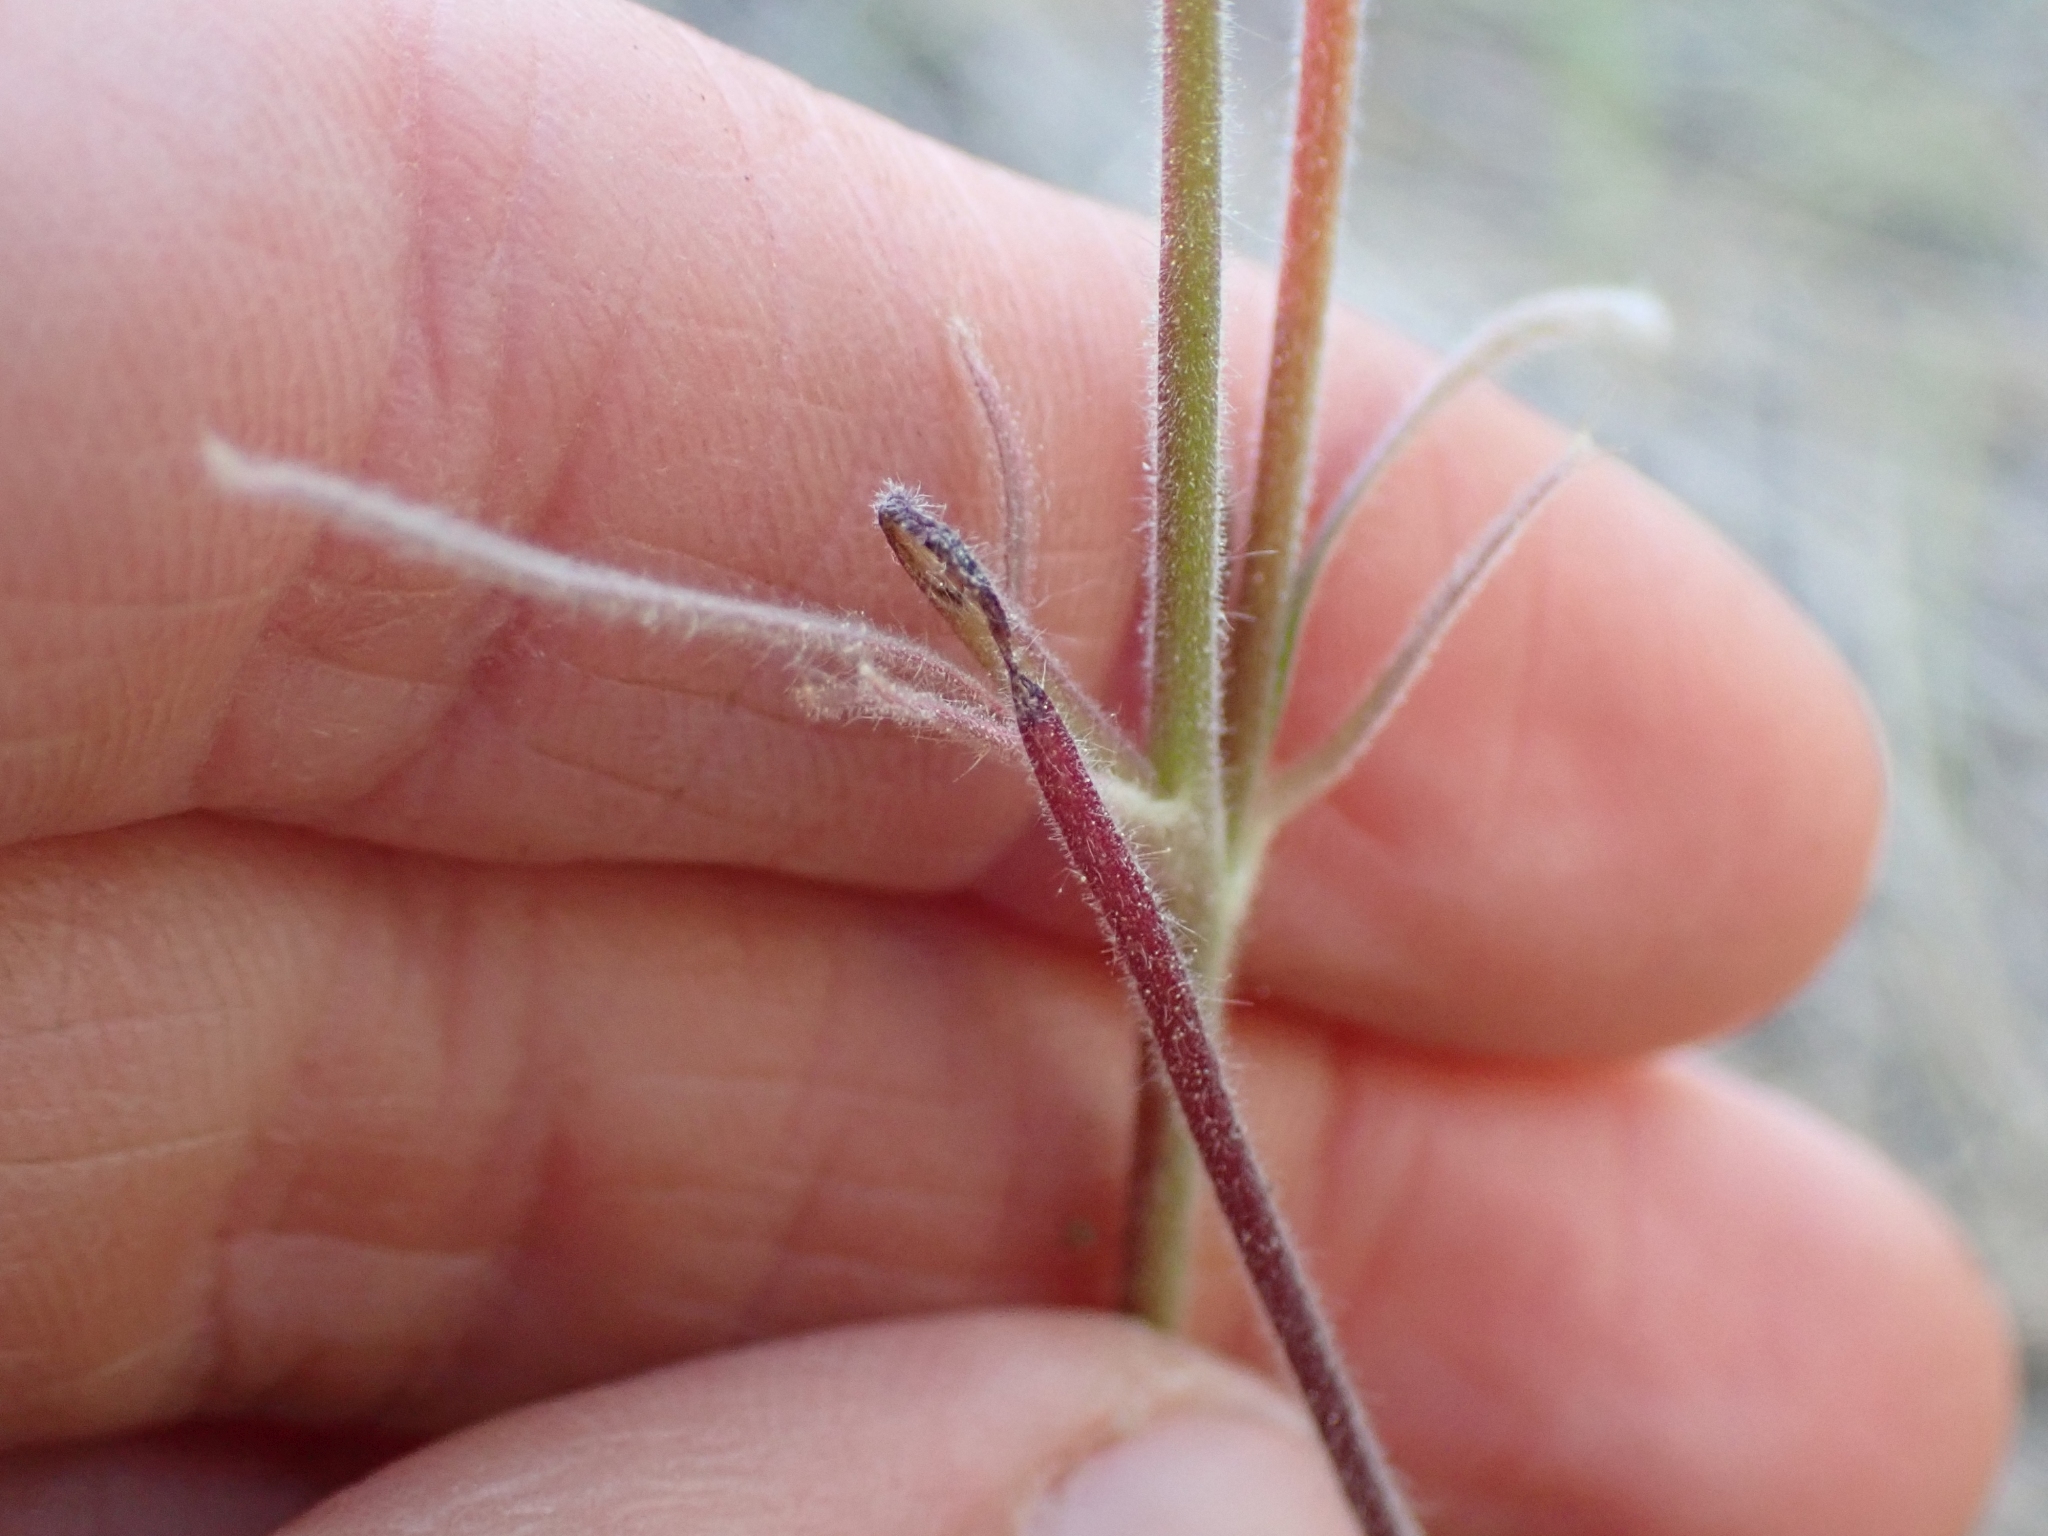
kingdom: Plantae
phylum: Tracheophyta
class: Magnoliopsida
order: Rosales
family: Rosaceae
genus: Geum
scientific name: Geum triflorum
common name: Old man's whiskers
